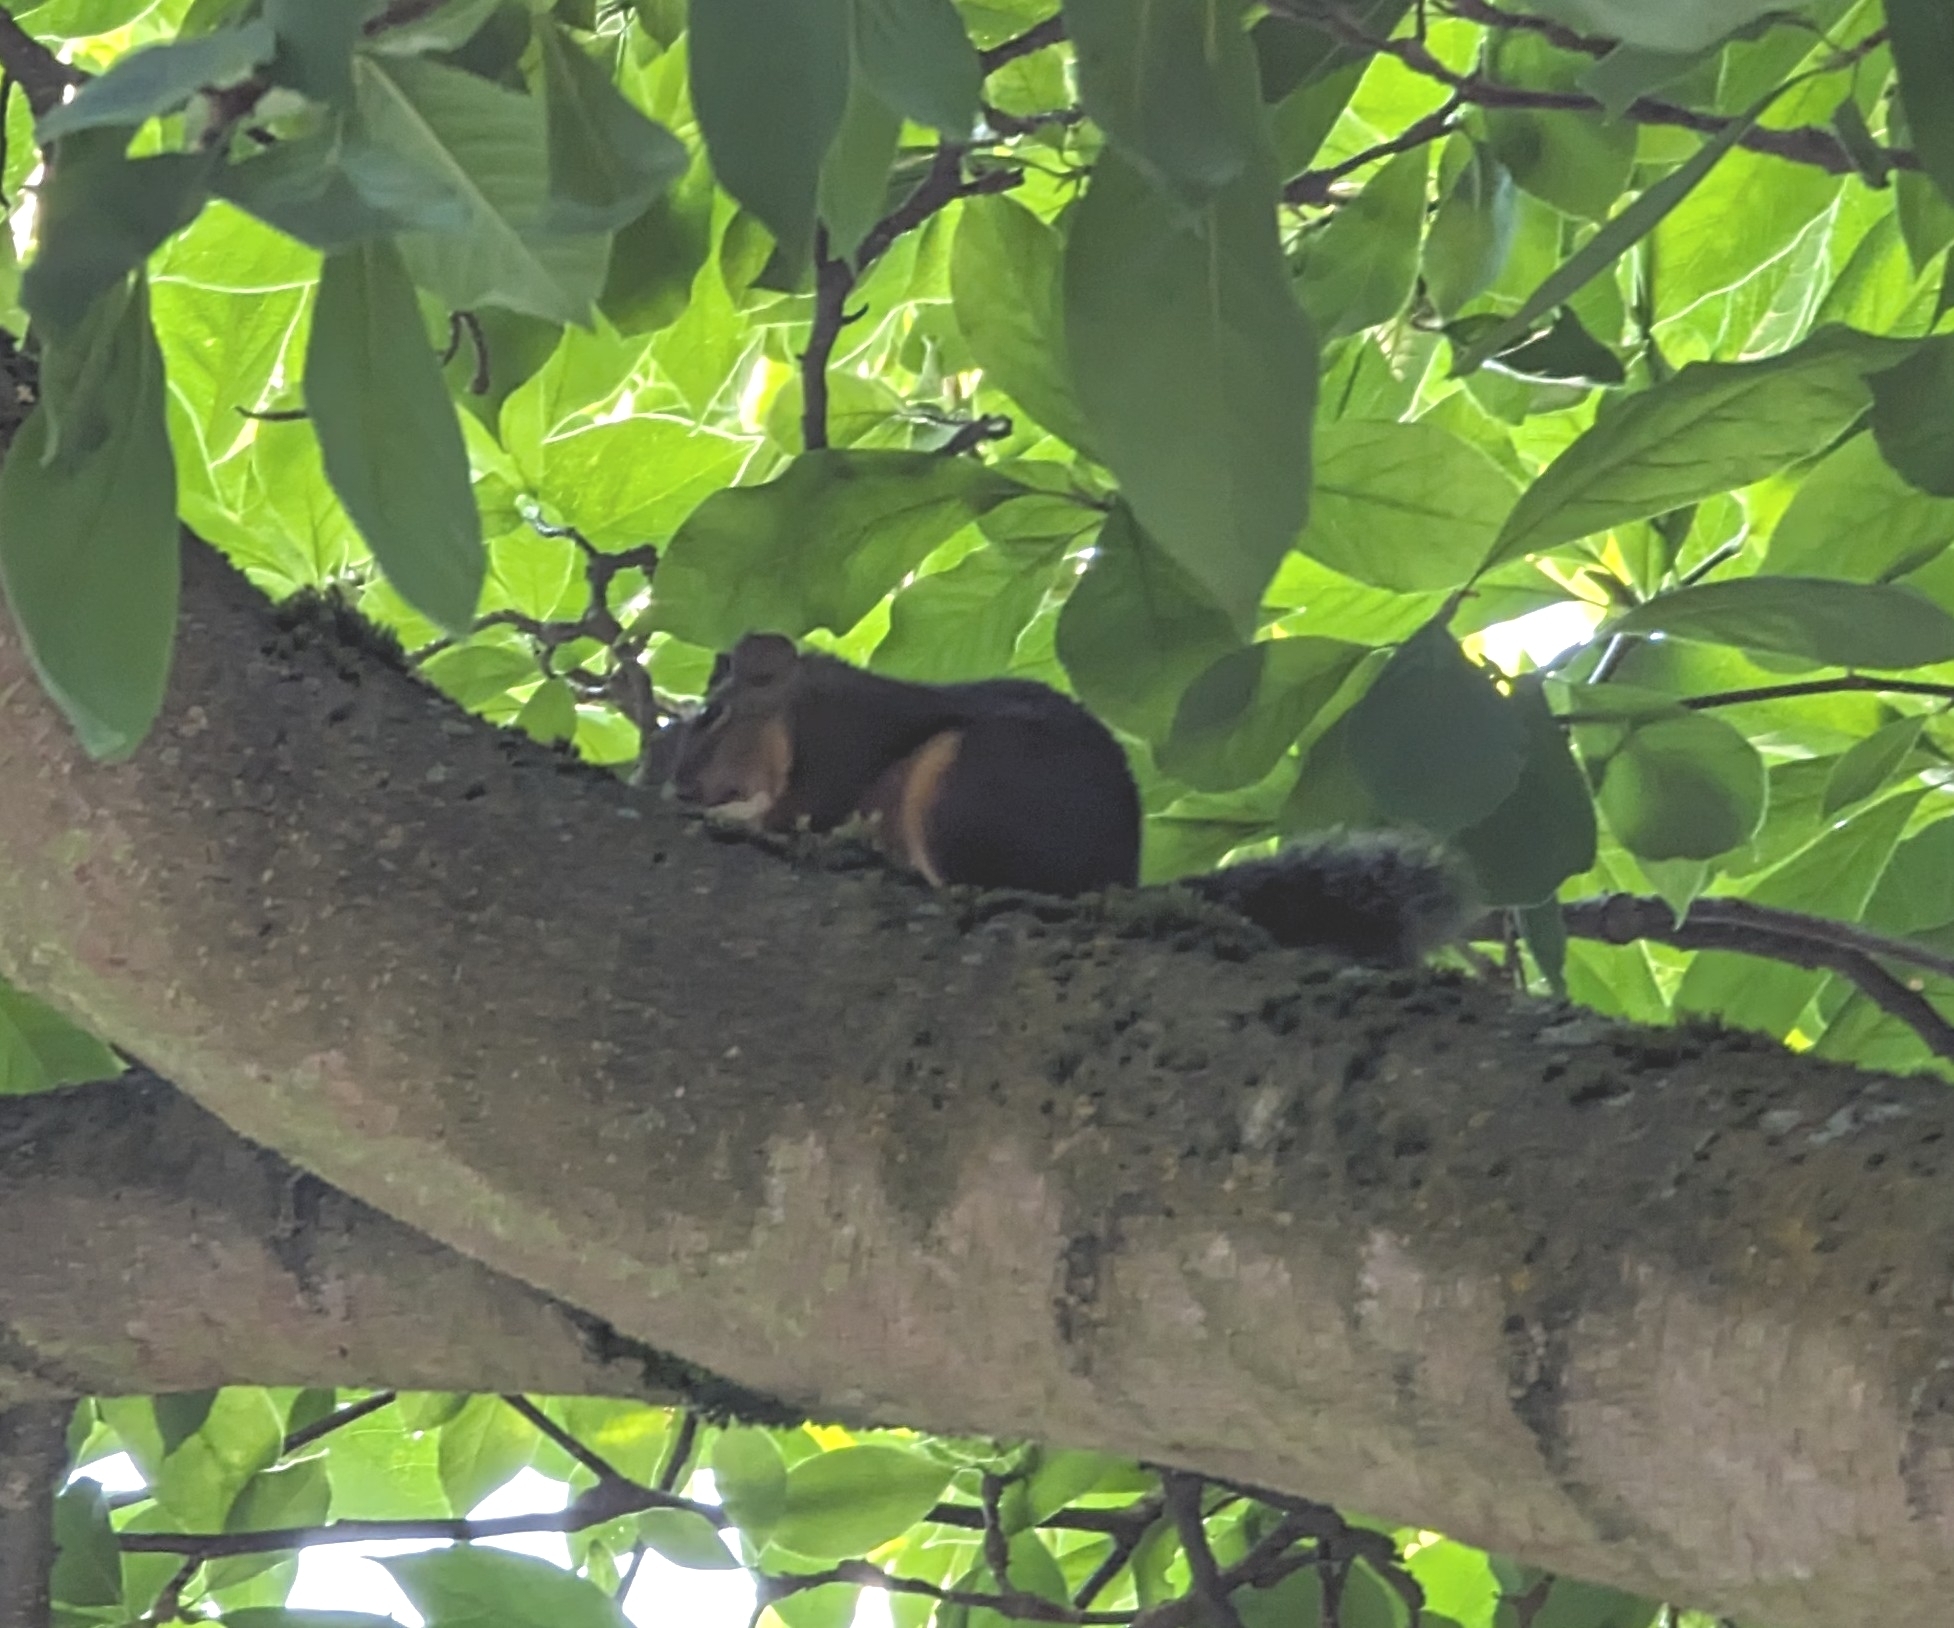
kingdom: Animalia
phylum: Chordata
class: Mammalia
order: Rodentia
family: Sciuridae
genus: Tamiasciurus
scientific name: Tamiasciurus douglasii
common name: Douglas's squirrel
